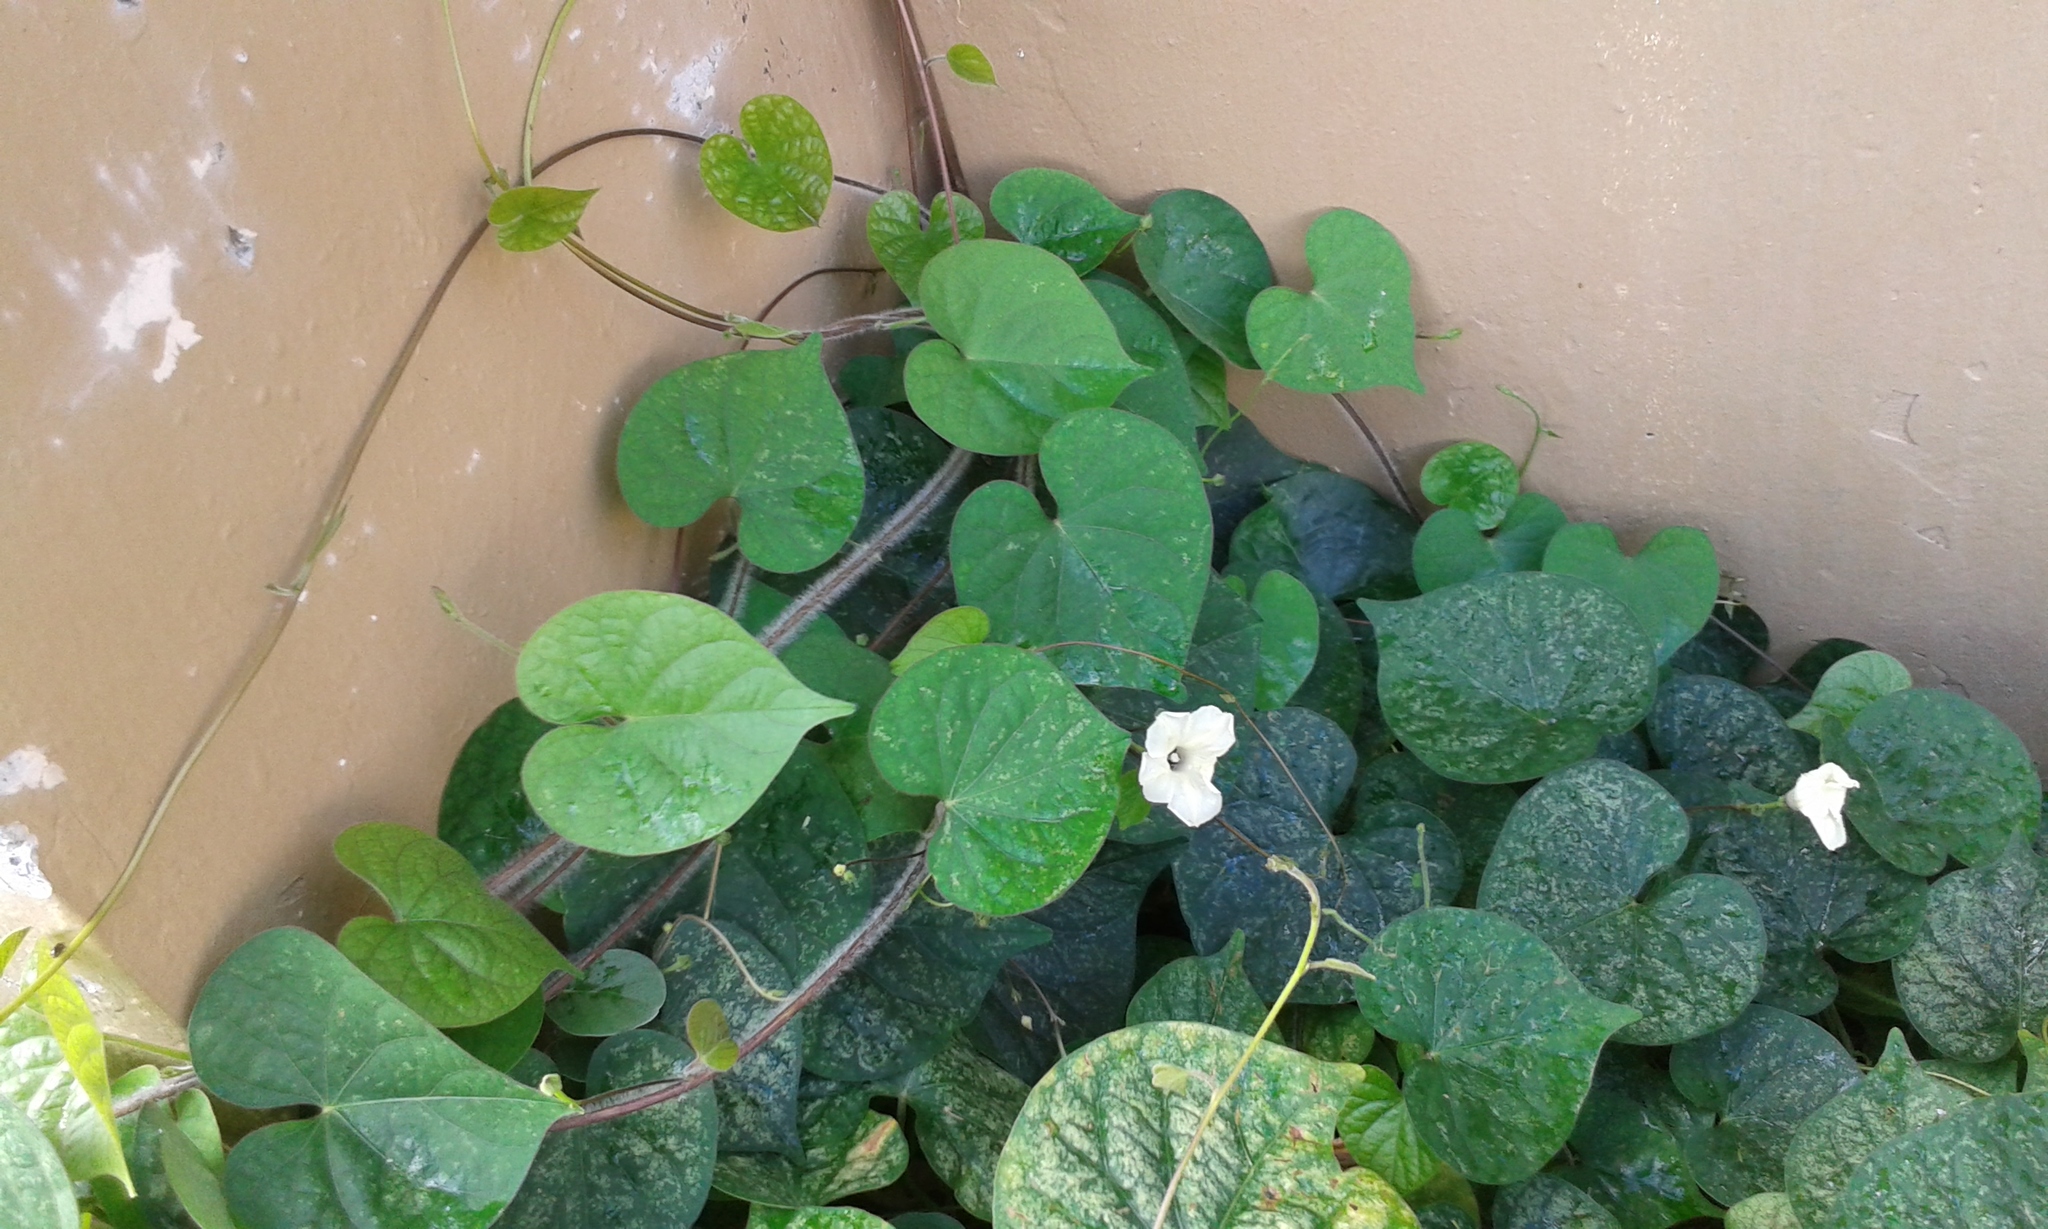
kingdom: Plantae
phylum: Tracheophyta
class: Magnoliopsida
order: Solanales
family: Convolvulaceae
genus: Ipomoea
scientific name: Ipomoea obscura
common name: Obscure morning-glory
